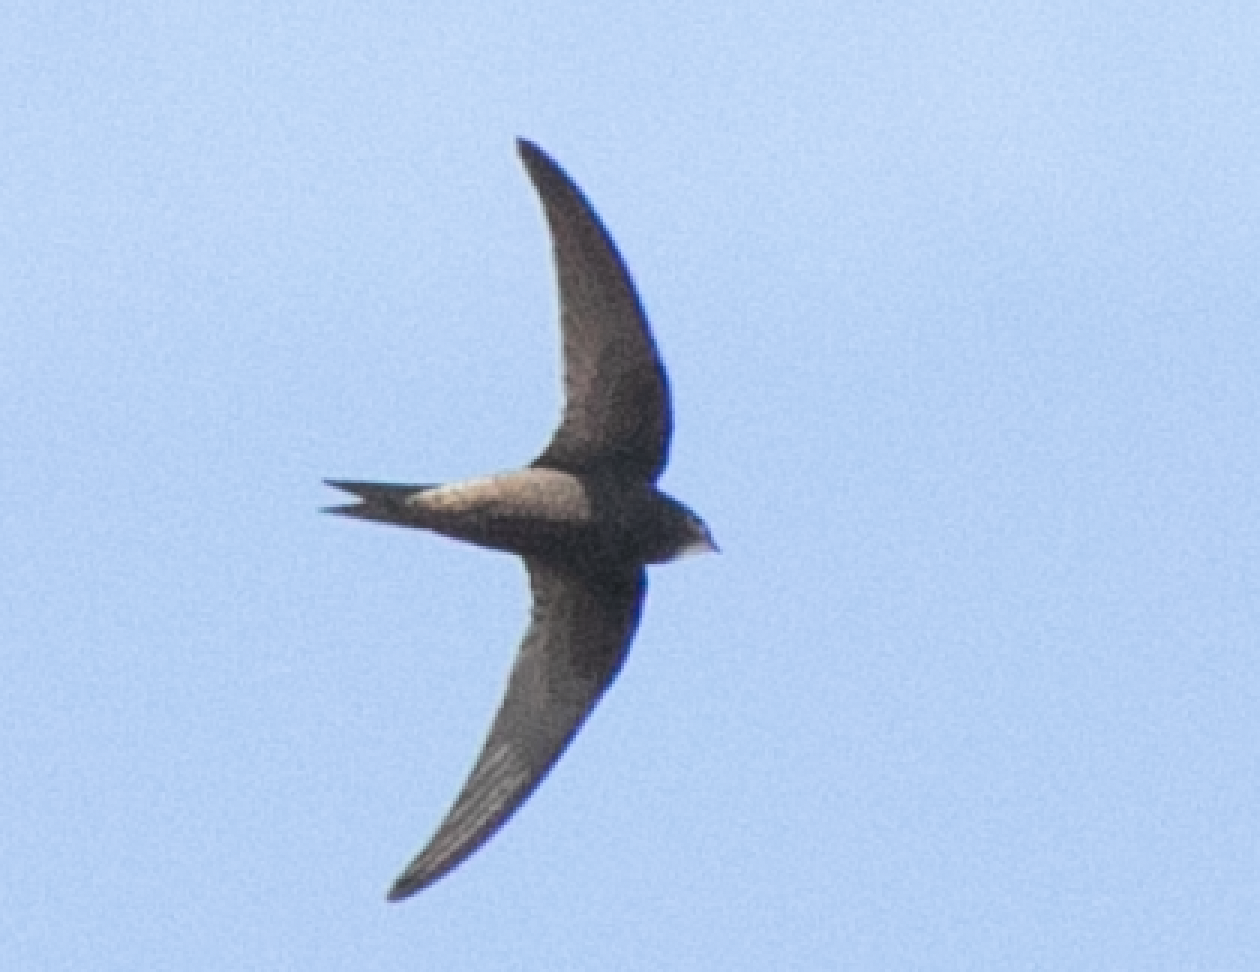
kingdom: Animalia
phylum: Chordata
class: Aves
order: Apodiformes
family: Apodidae
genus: Apus
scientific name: Apus apus
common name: Common swift
